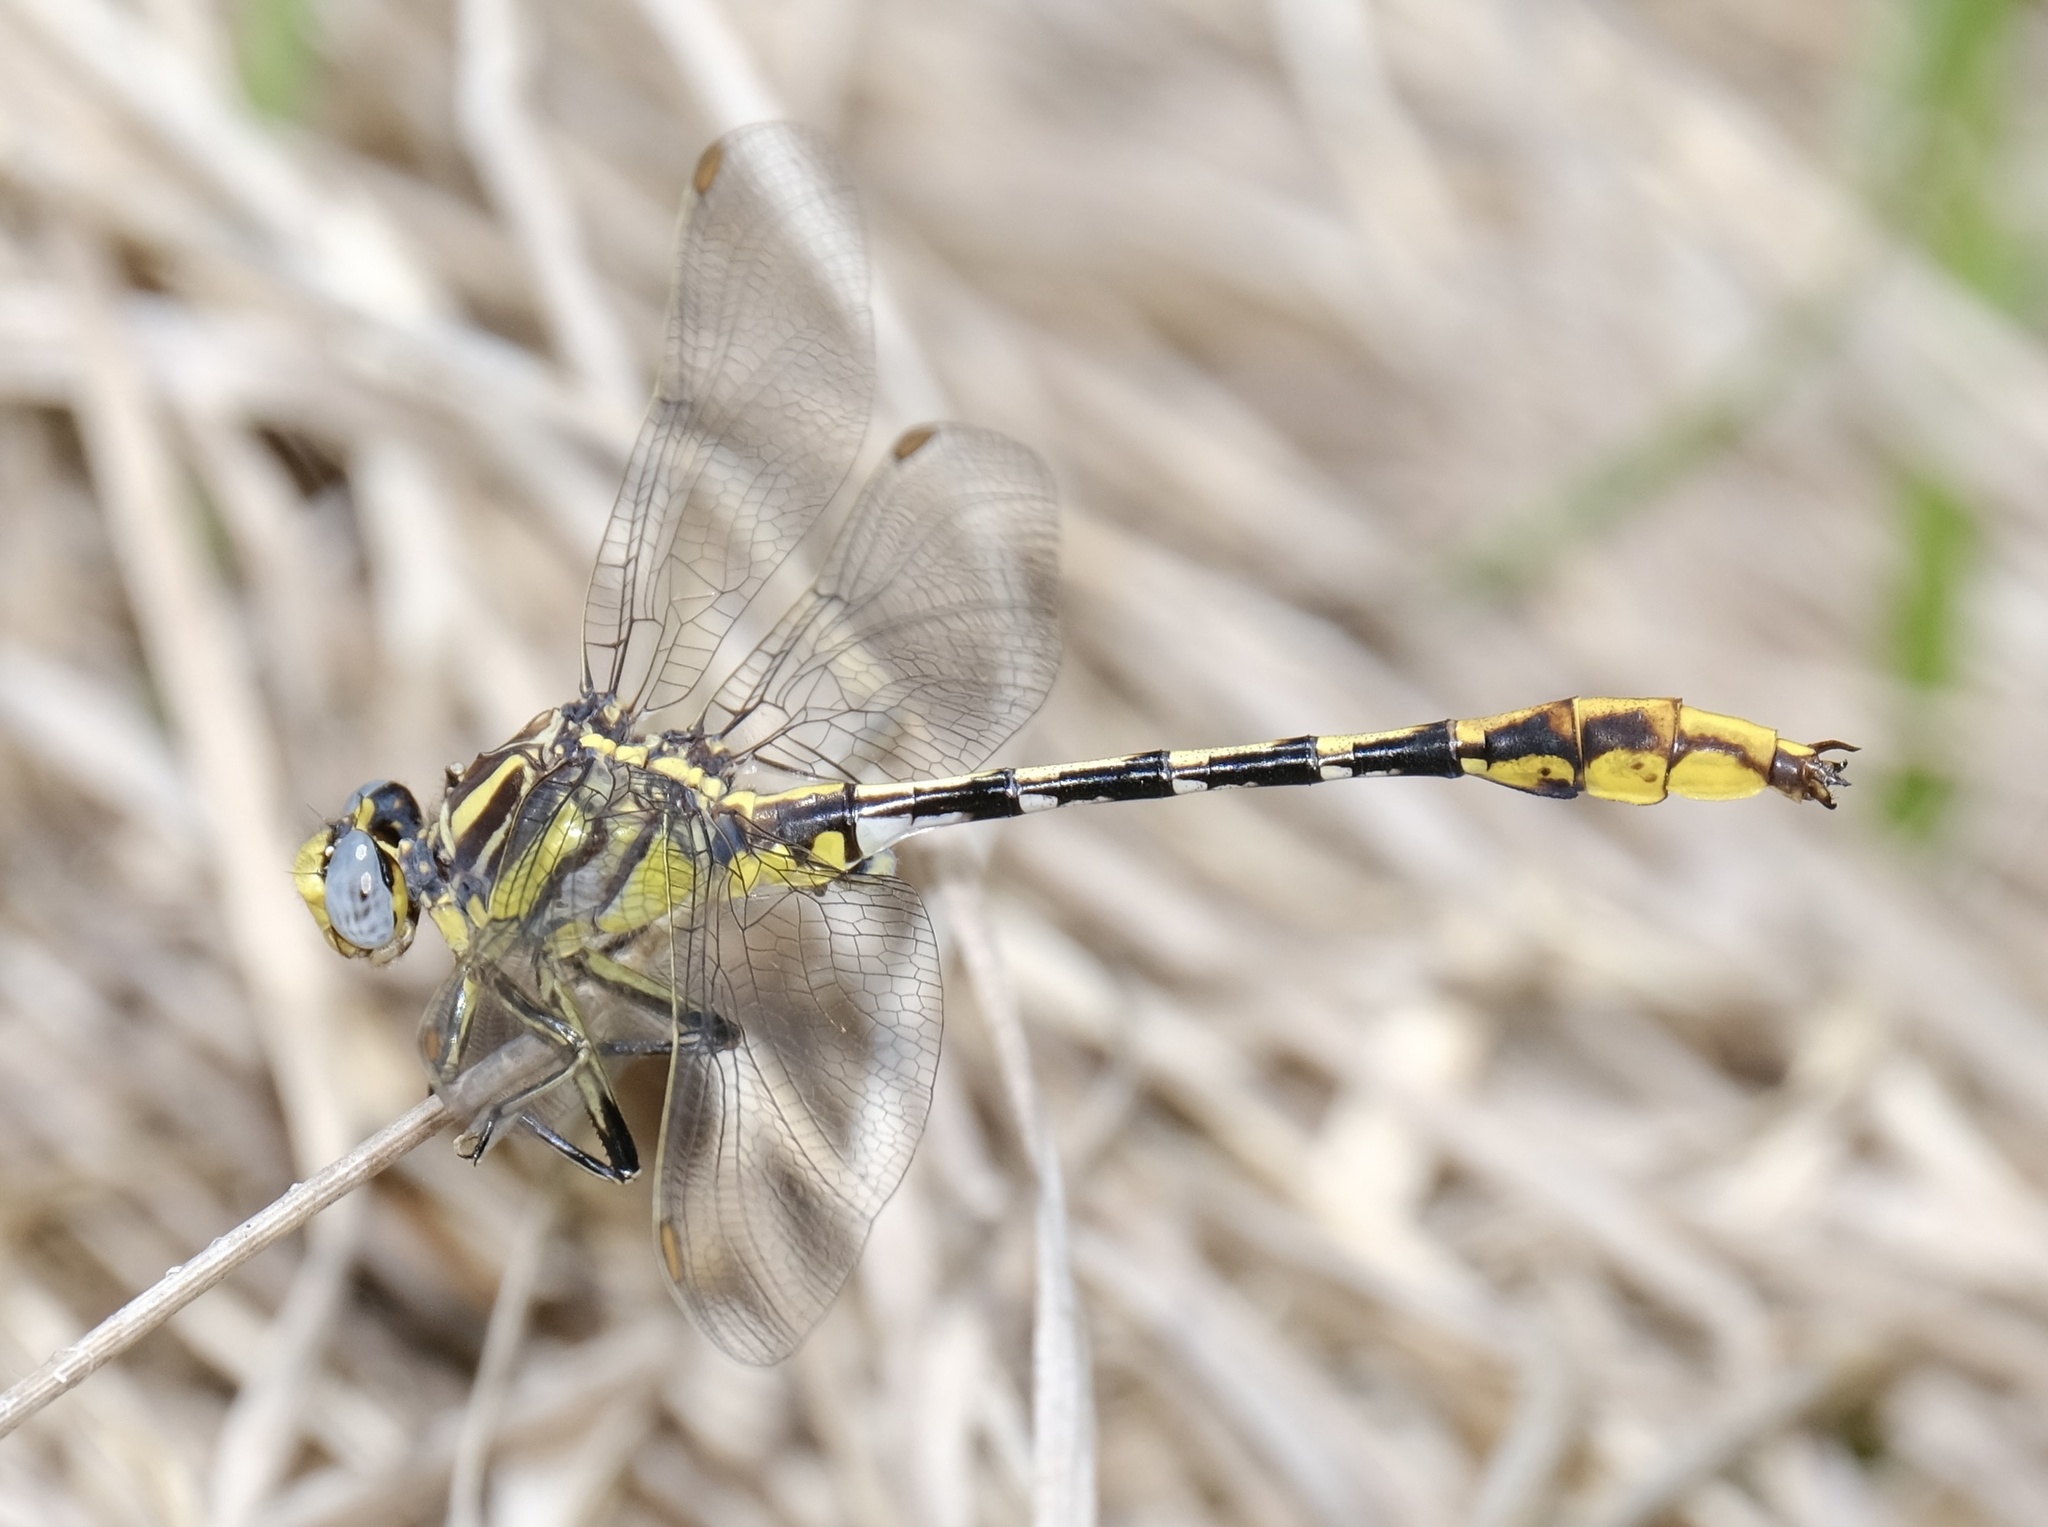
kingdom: Animalia
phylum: Arthropoda
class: Insecta
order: Odonata
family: Gomphidae
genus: Phanogomphus
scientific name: Phanogomphus militaris
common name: Sulphur-tipped clubtail
